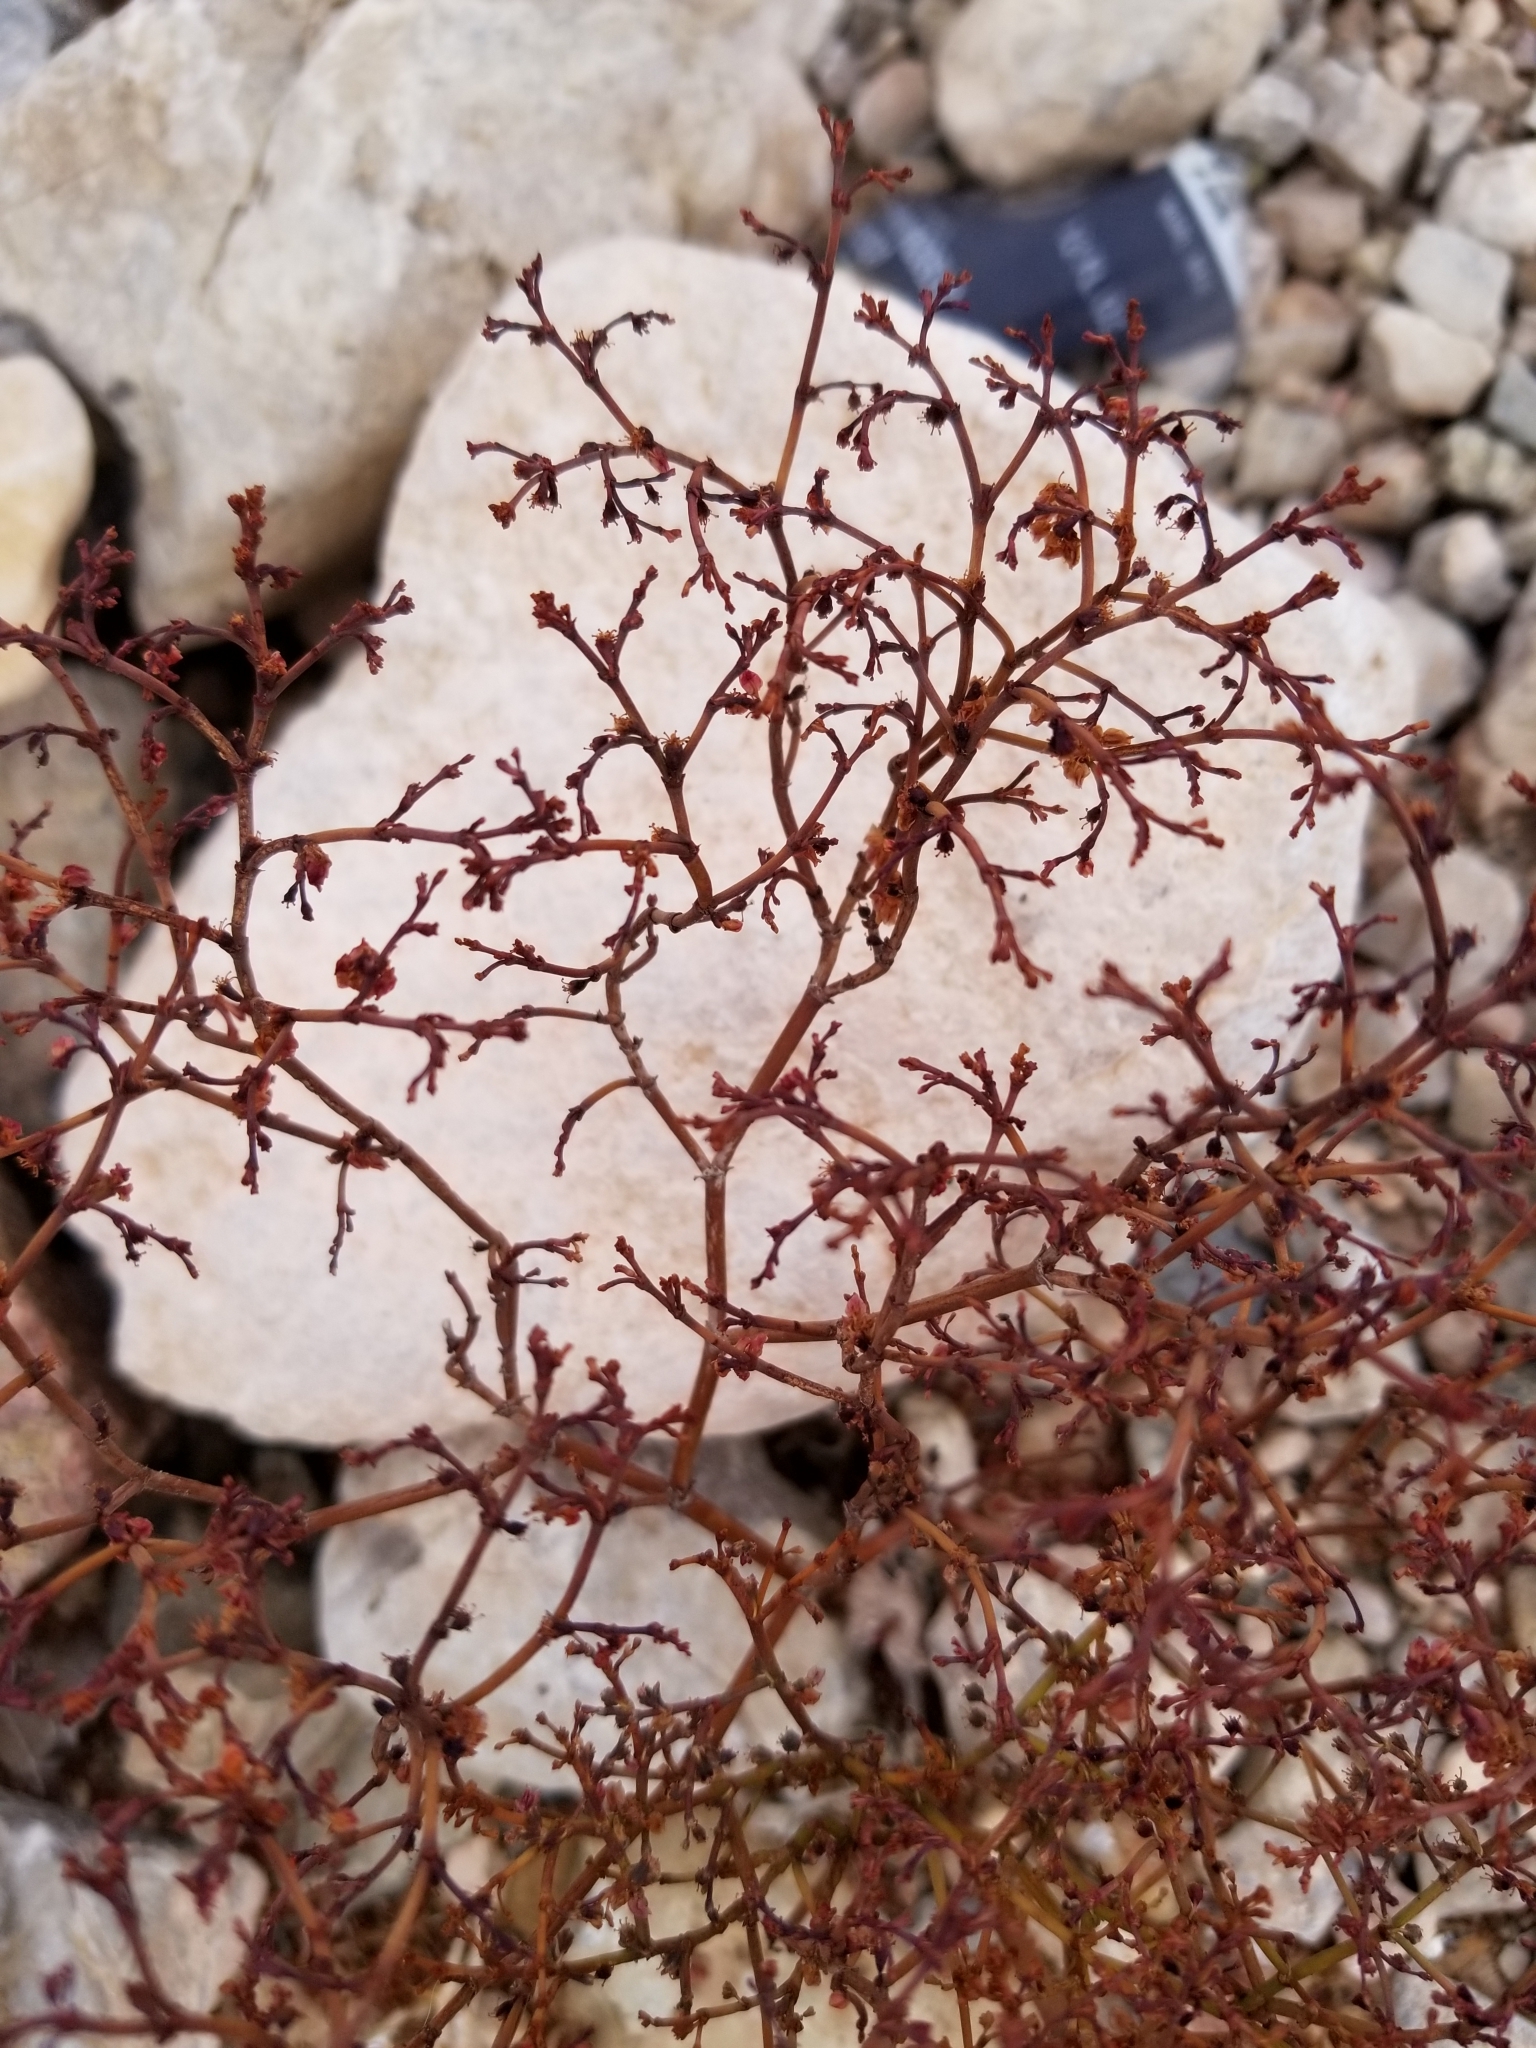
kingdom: Plantae
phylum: Tracheophyta
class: Magnoliopsida
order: Caryophyllales
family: Polygonaceae
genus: Eriogonum
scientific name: Eriogonum deflexum
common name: Skeleton-weed
